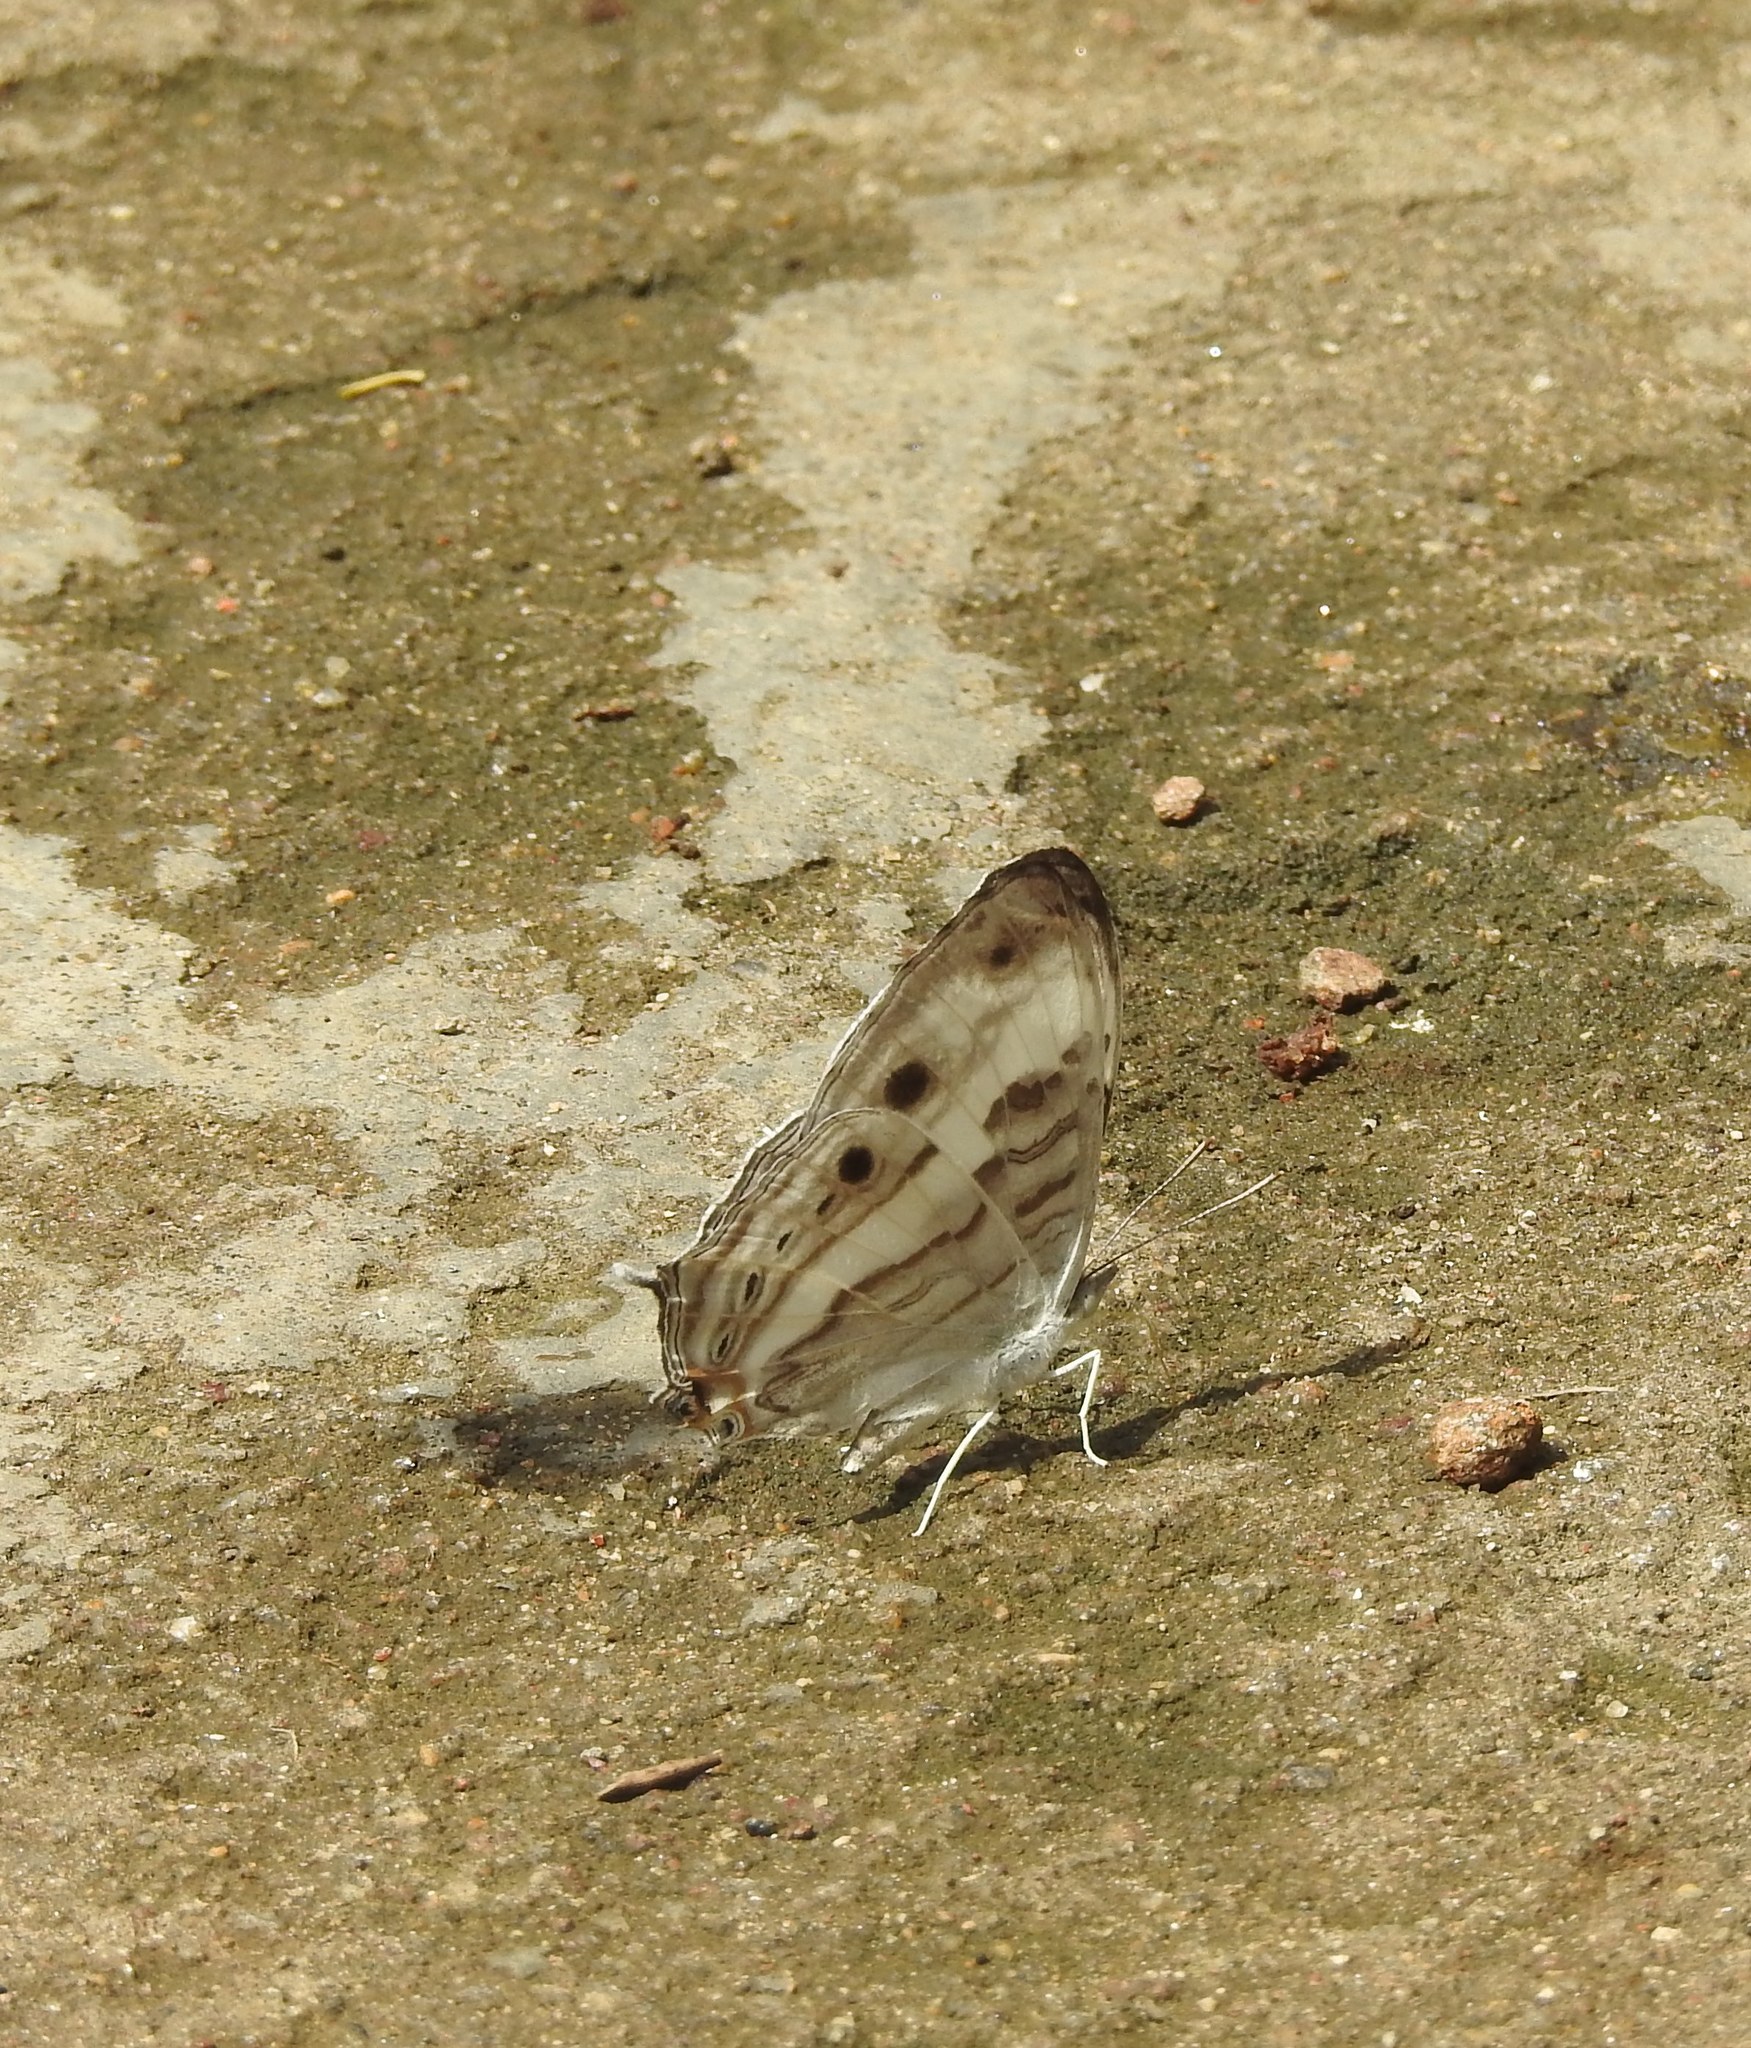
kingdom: Animalia
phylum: Arthropoda
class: Insecta
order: Lepidoptera
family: Nymphalidae
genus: Cyrestis
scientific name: Cyrestis cocles
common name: Marbled map
